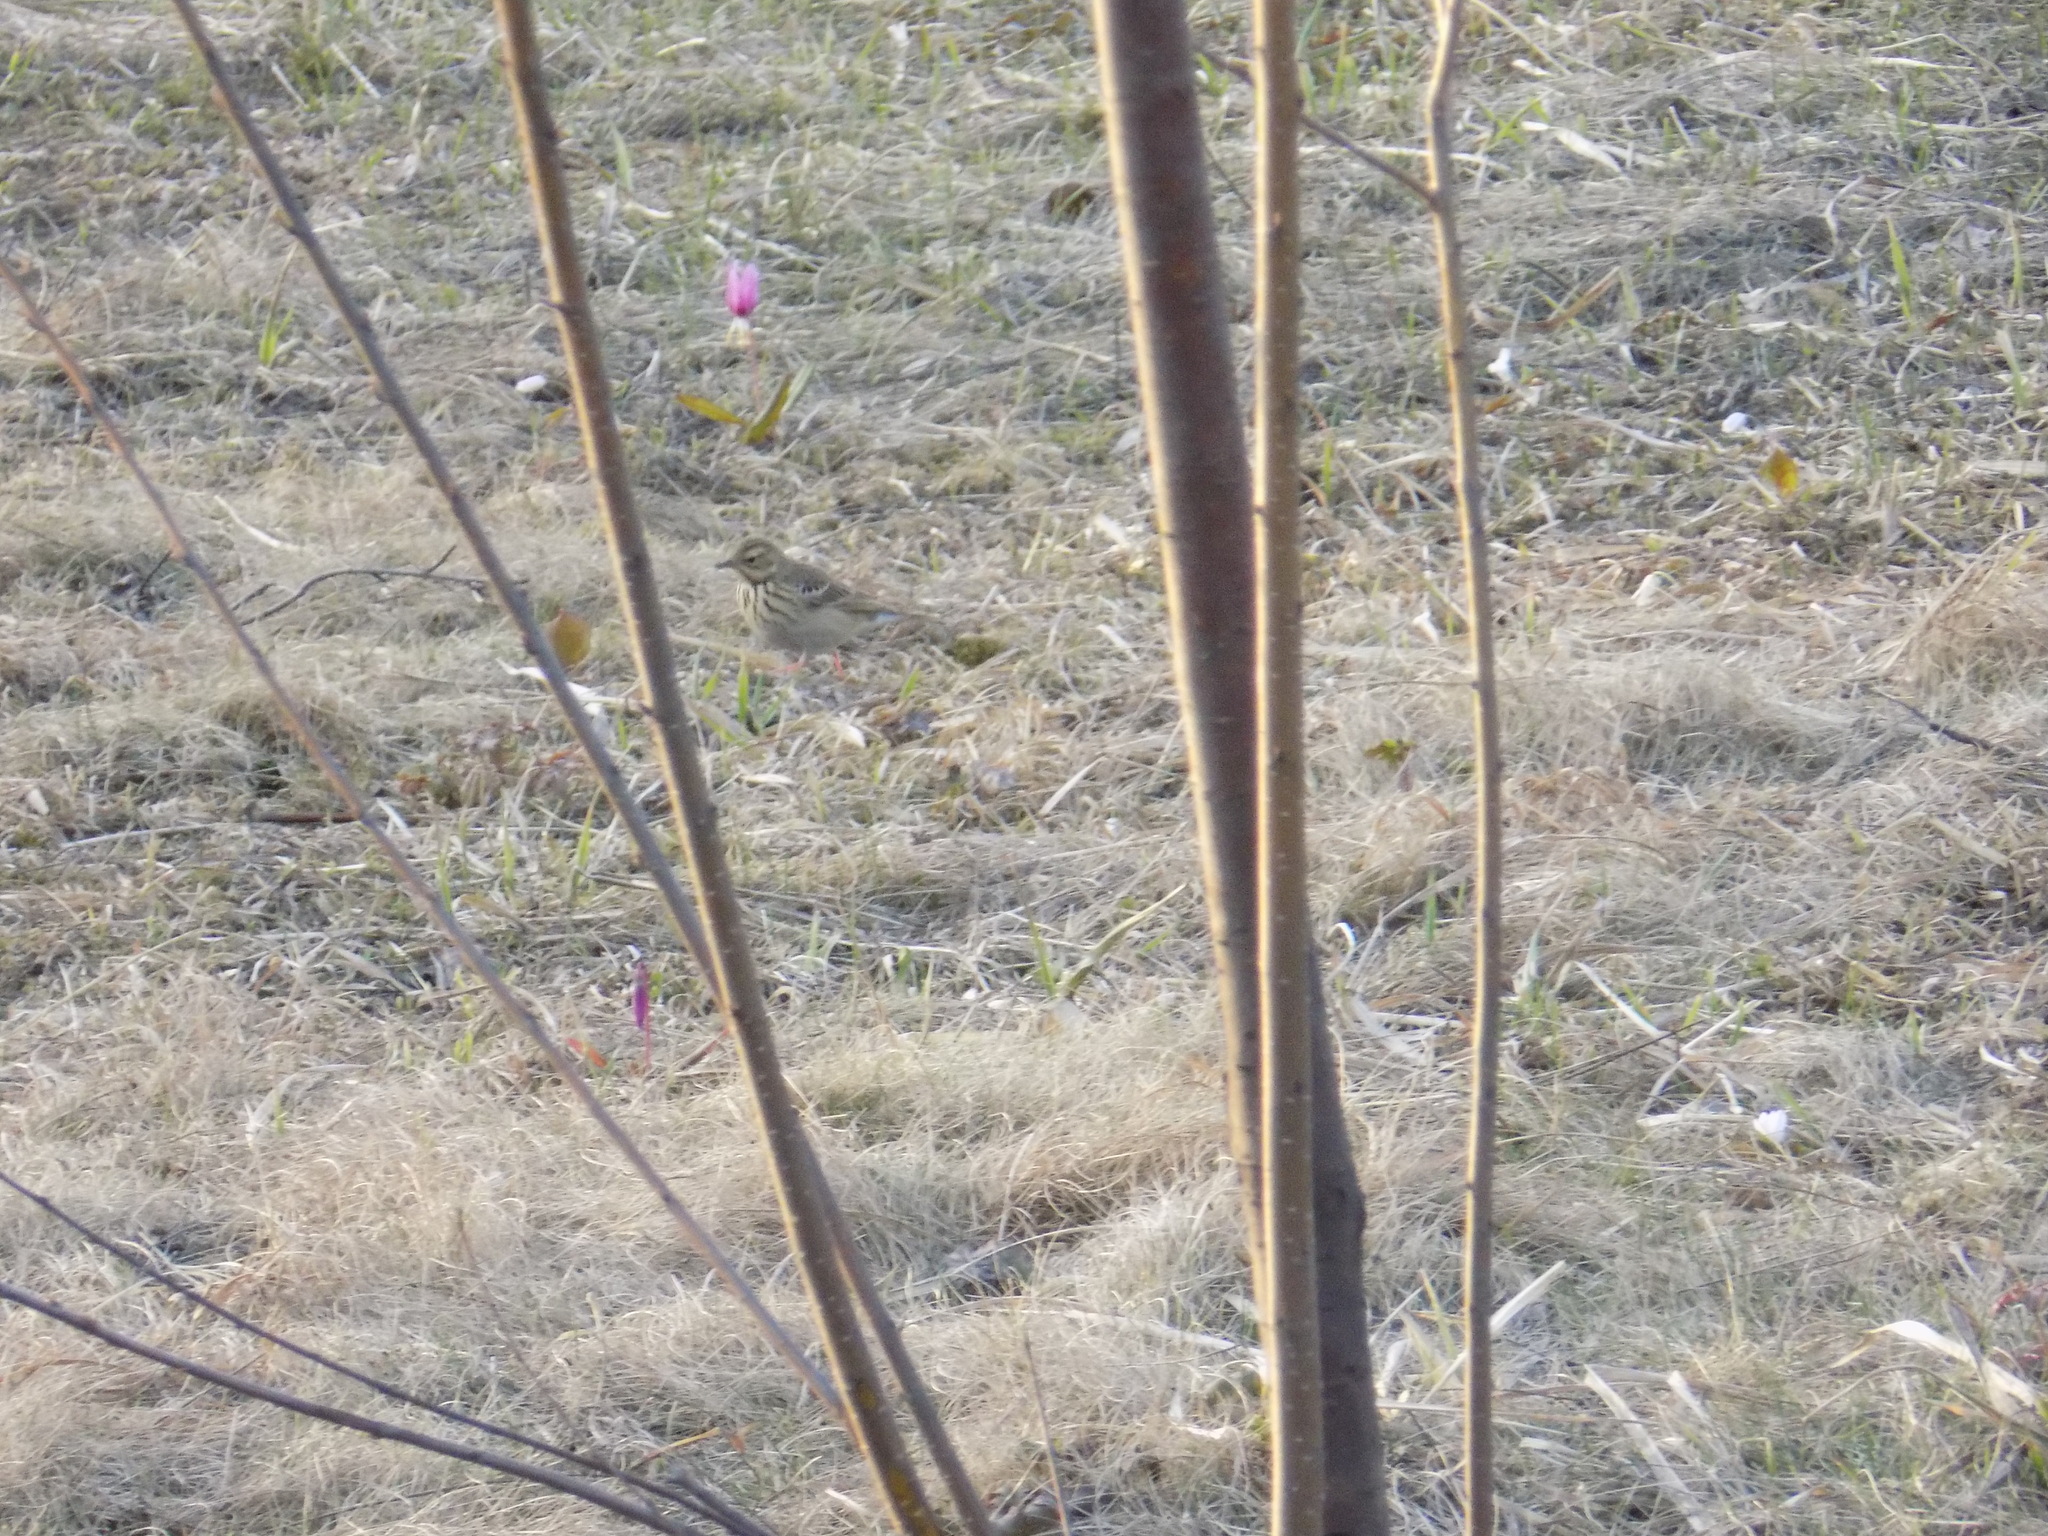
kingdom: Animalia
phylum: Chordata
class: Aves
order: Passeriformes
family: Motacillidae
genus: Anthus
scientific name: Anthus trivialis
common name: Tree pipit
